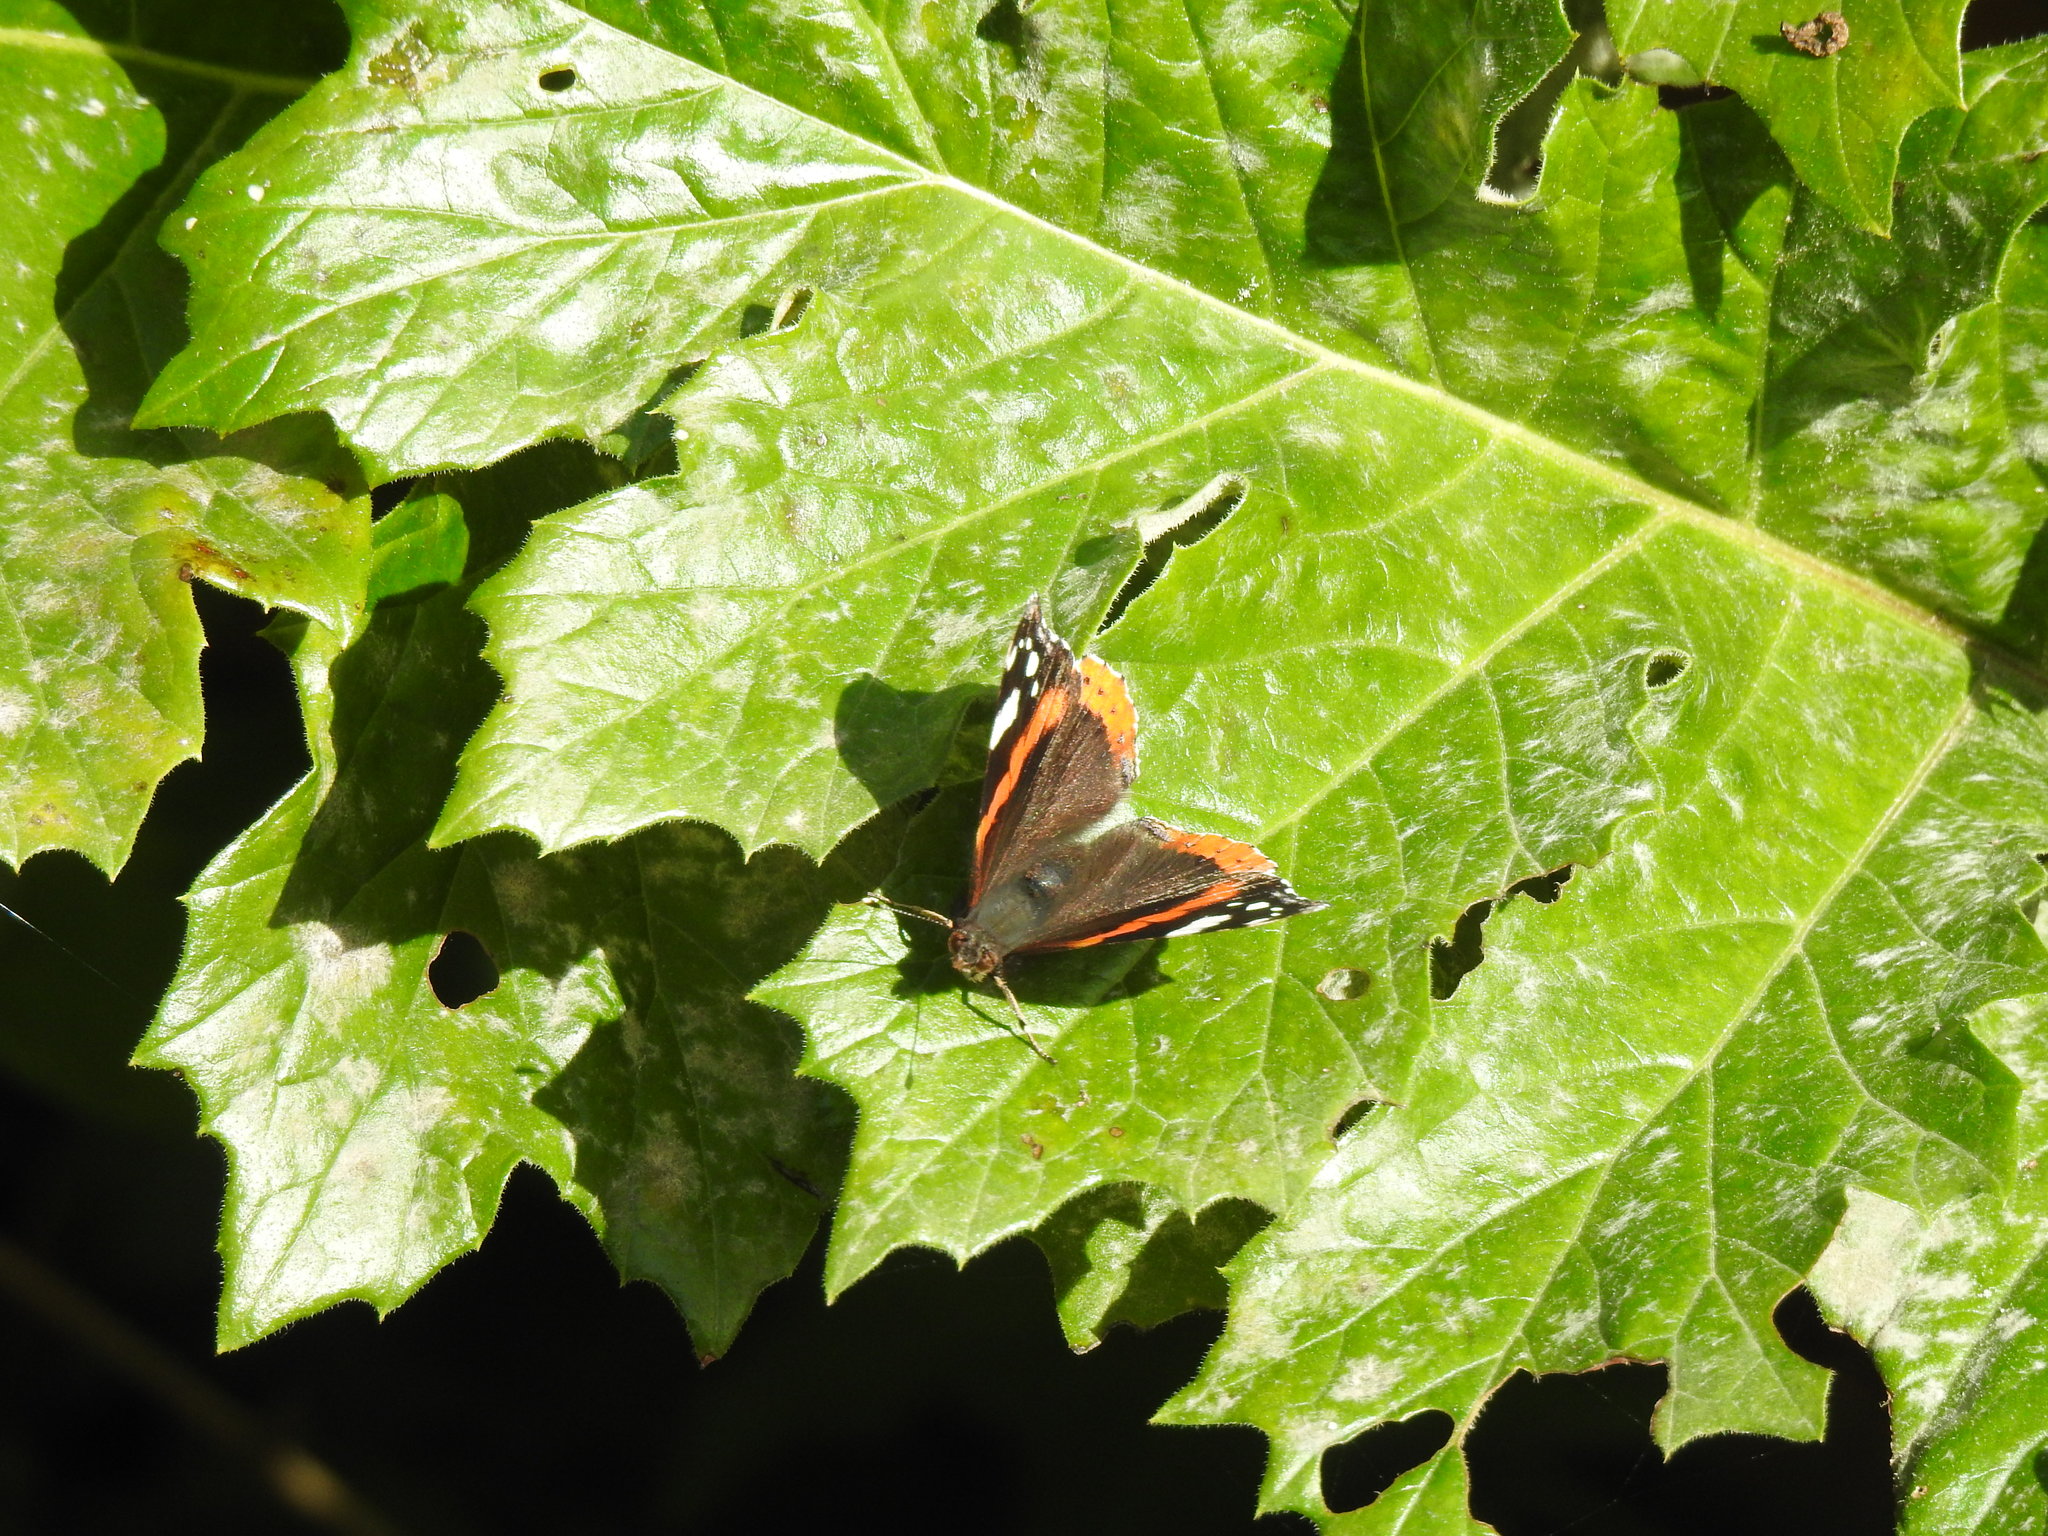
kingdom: Animalia
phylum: Arthropoda
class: Insecta
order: Lepidoptera
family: Nymphalidae
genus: Vanessa
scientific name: Vanessa atalanta
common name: Red admiral
